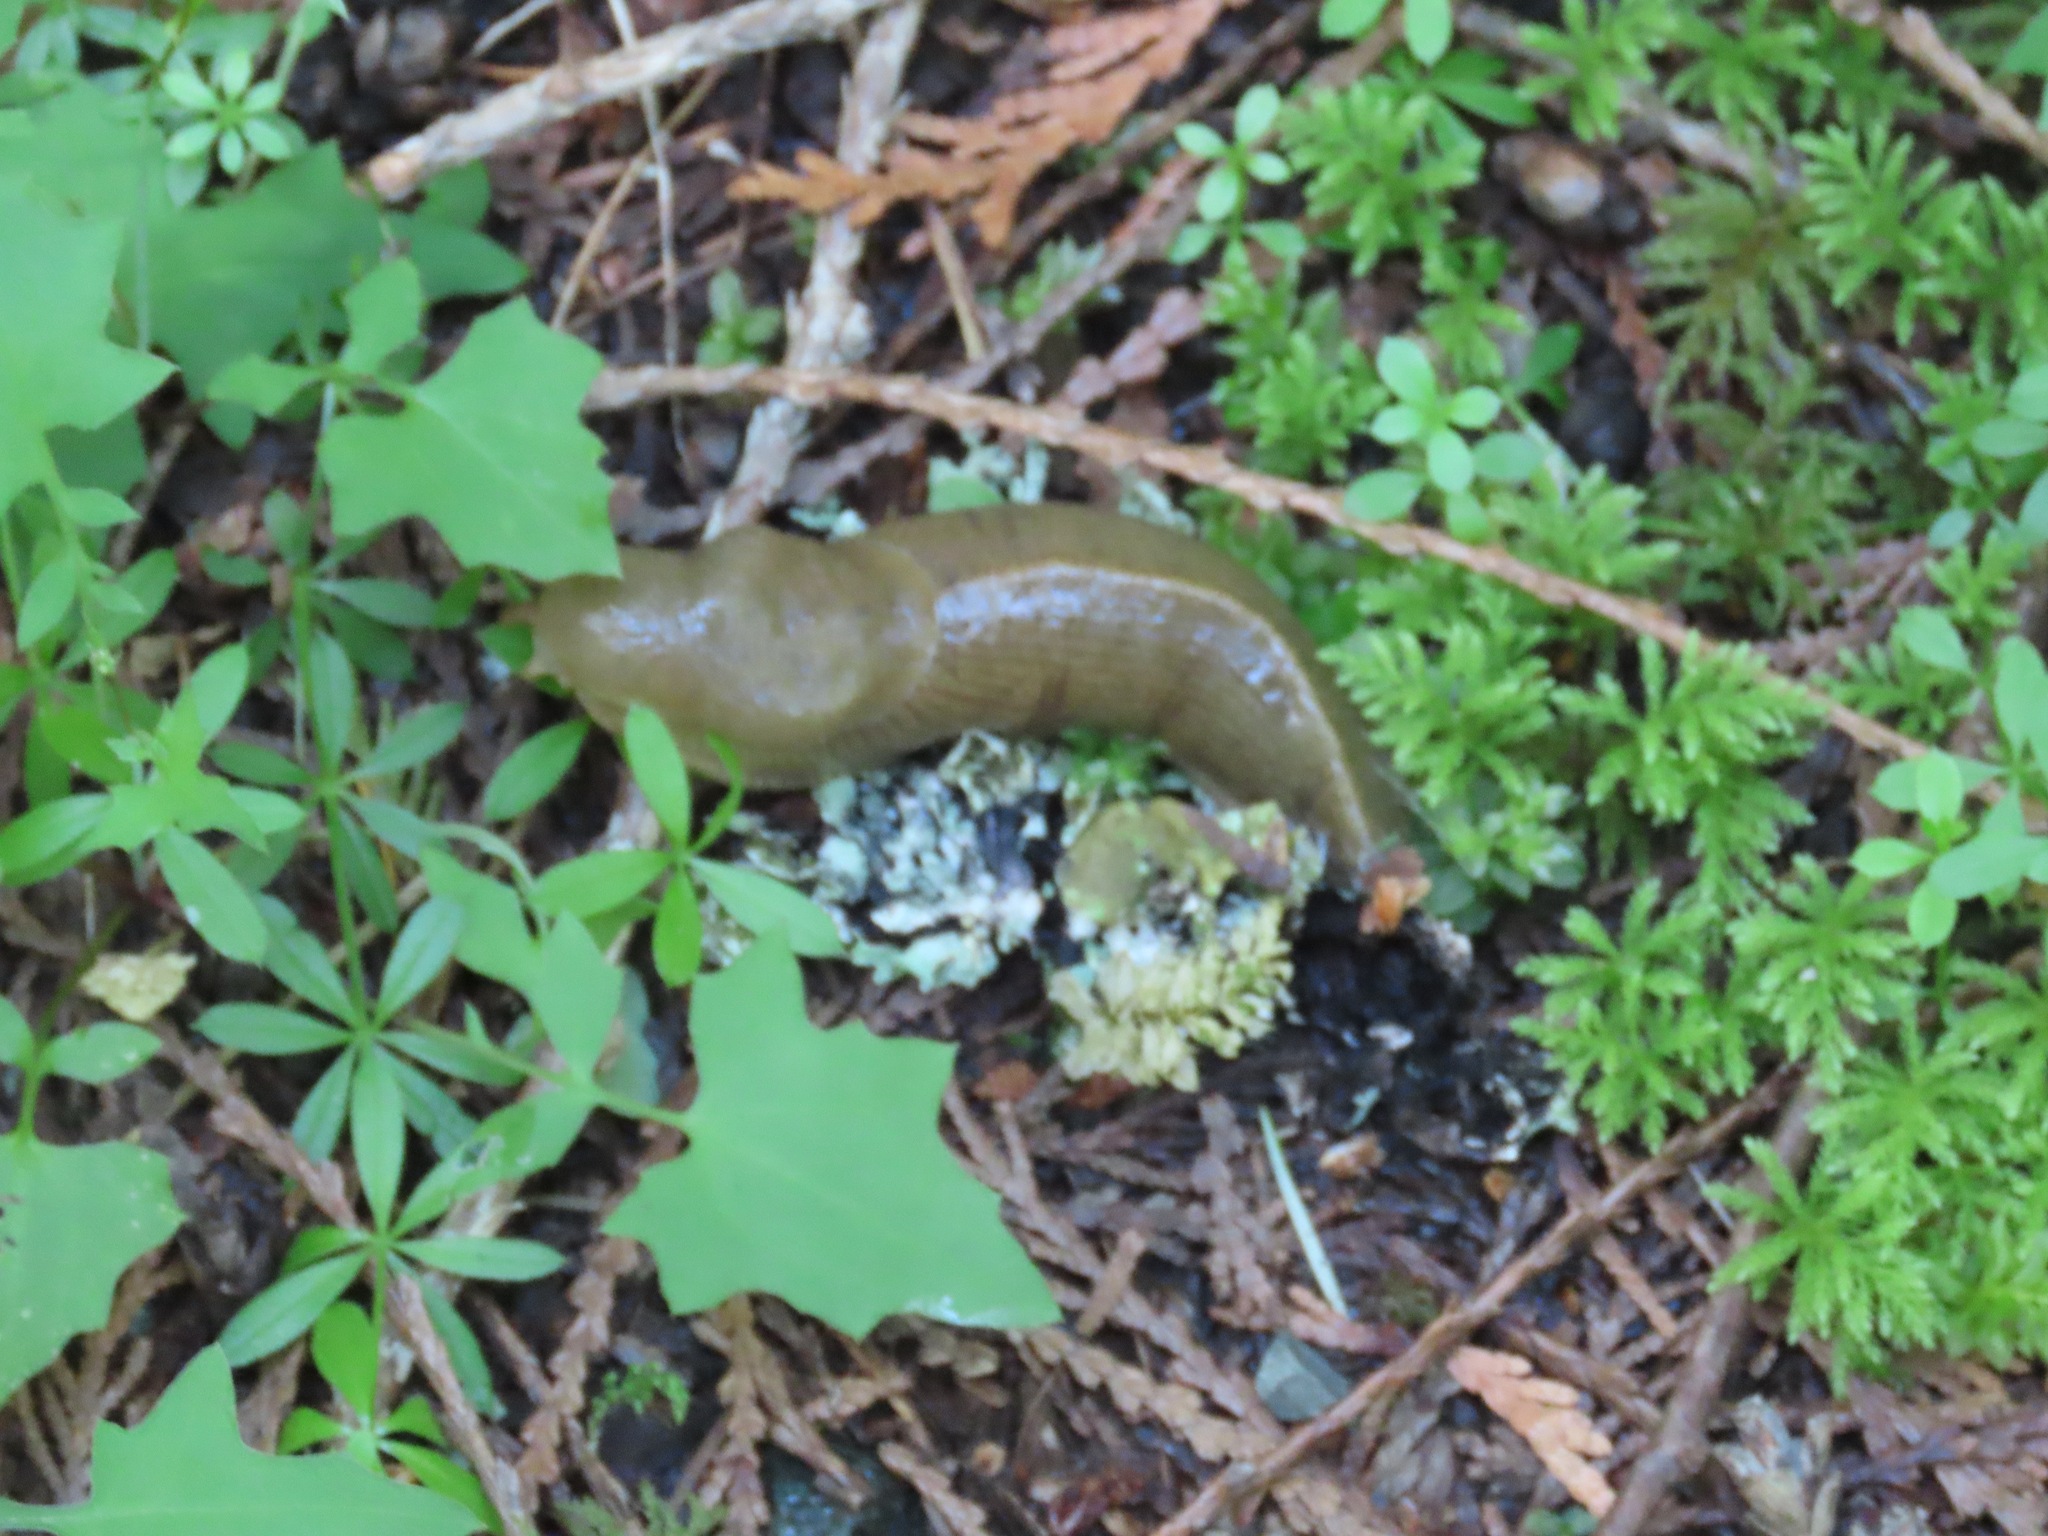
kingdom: Animalia
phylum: Mollusca
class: Gastropoda
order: Stylommatophora
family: Ariolimacidae
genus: Ariolimax
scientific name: Ariolimax columbianus
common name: Pacific banana slug
